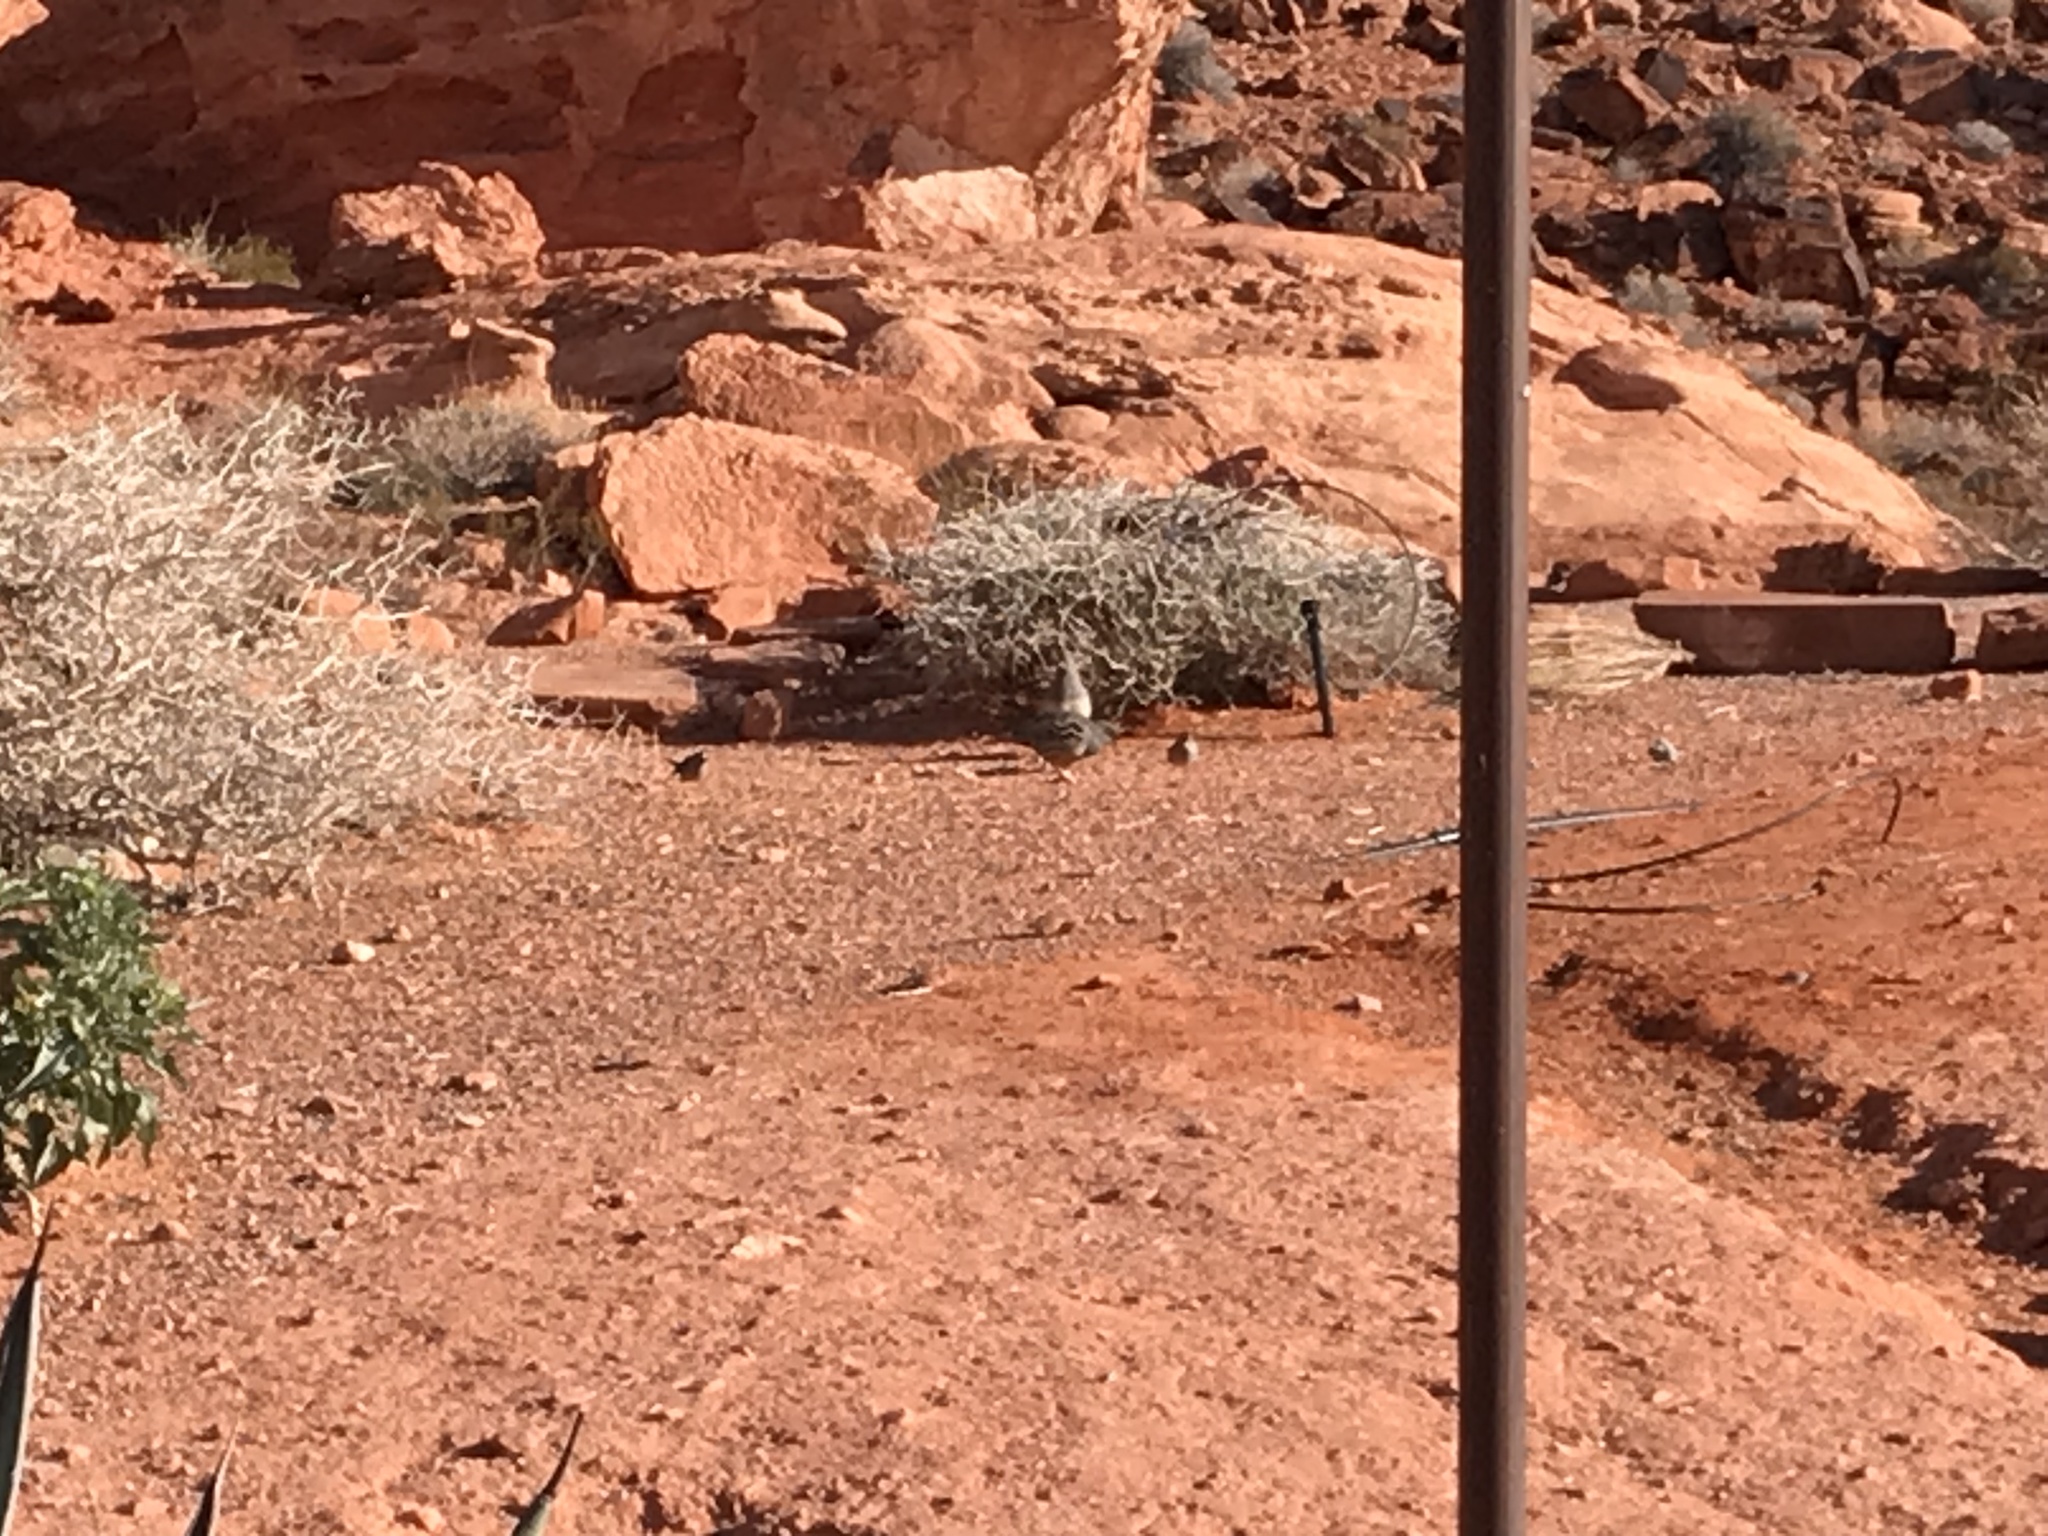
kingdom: Animalia
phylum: Chordata
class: Aves
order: Galliformes
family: Odontophoridae
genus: Callipepla
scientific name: Callipepla gambelii
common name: Gambel's quail
